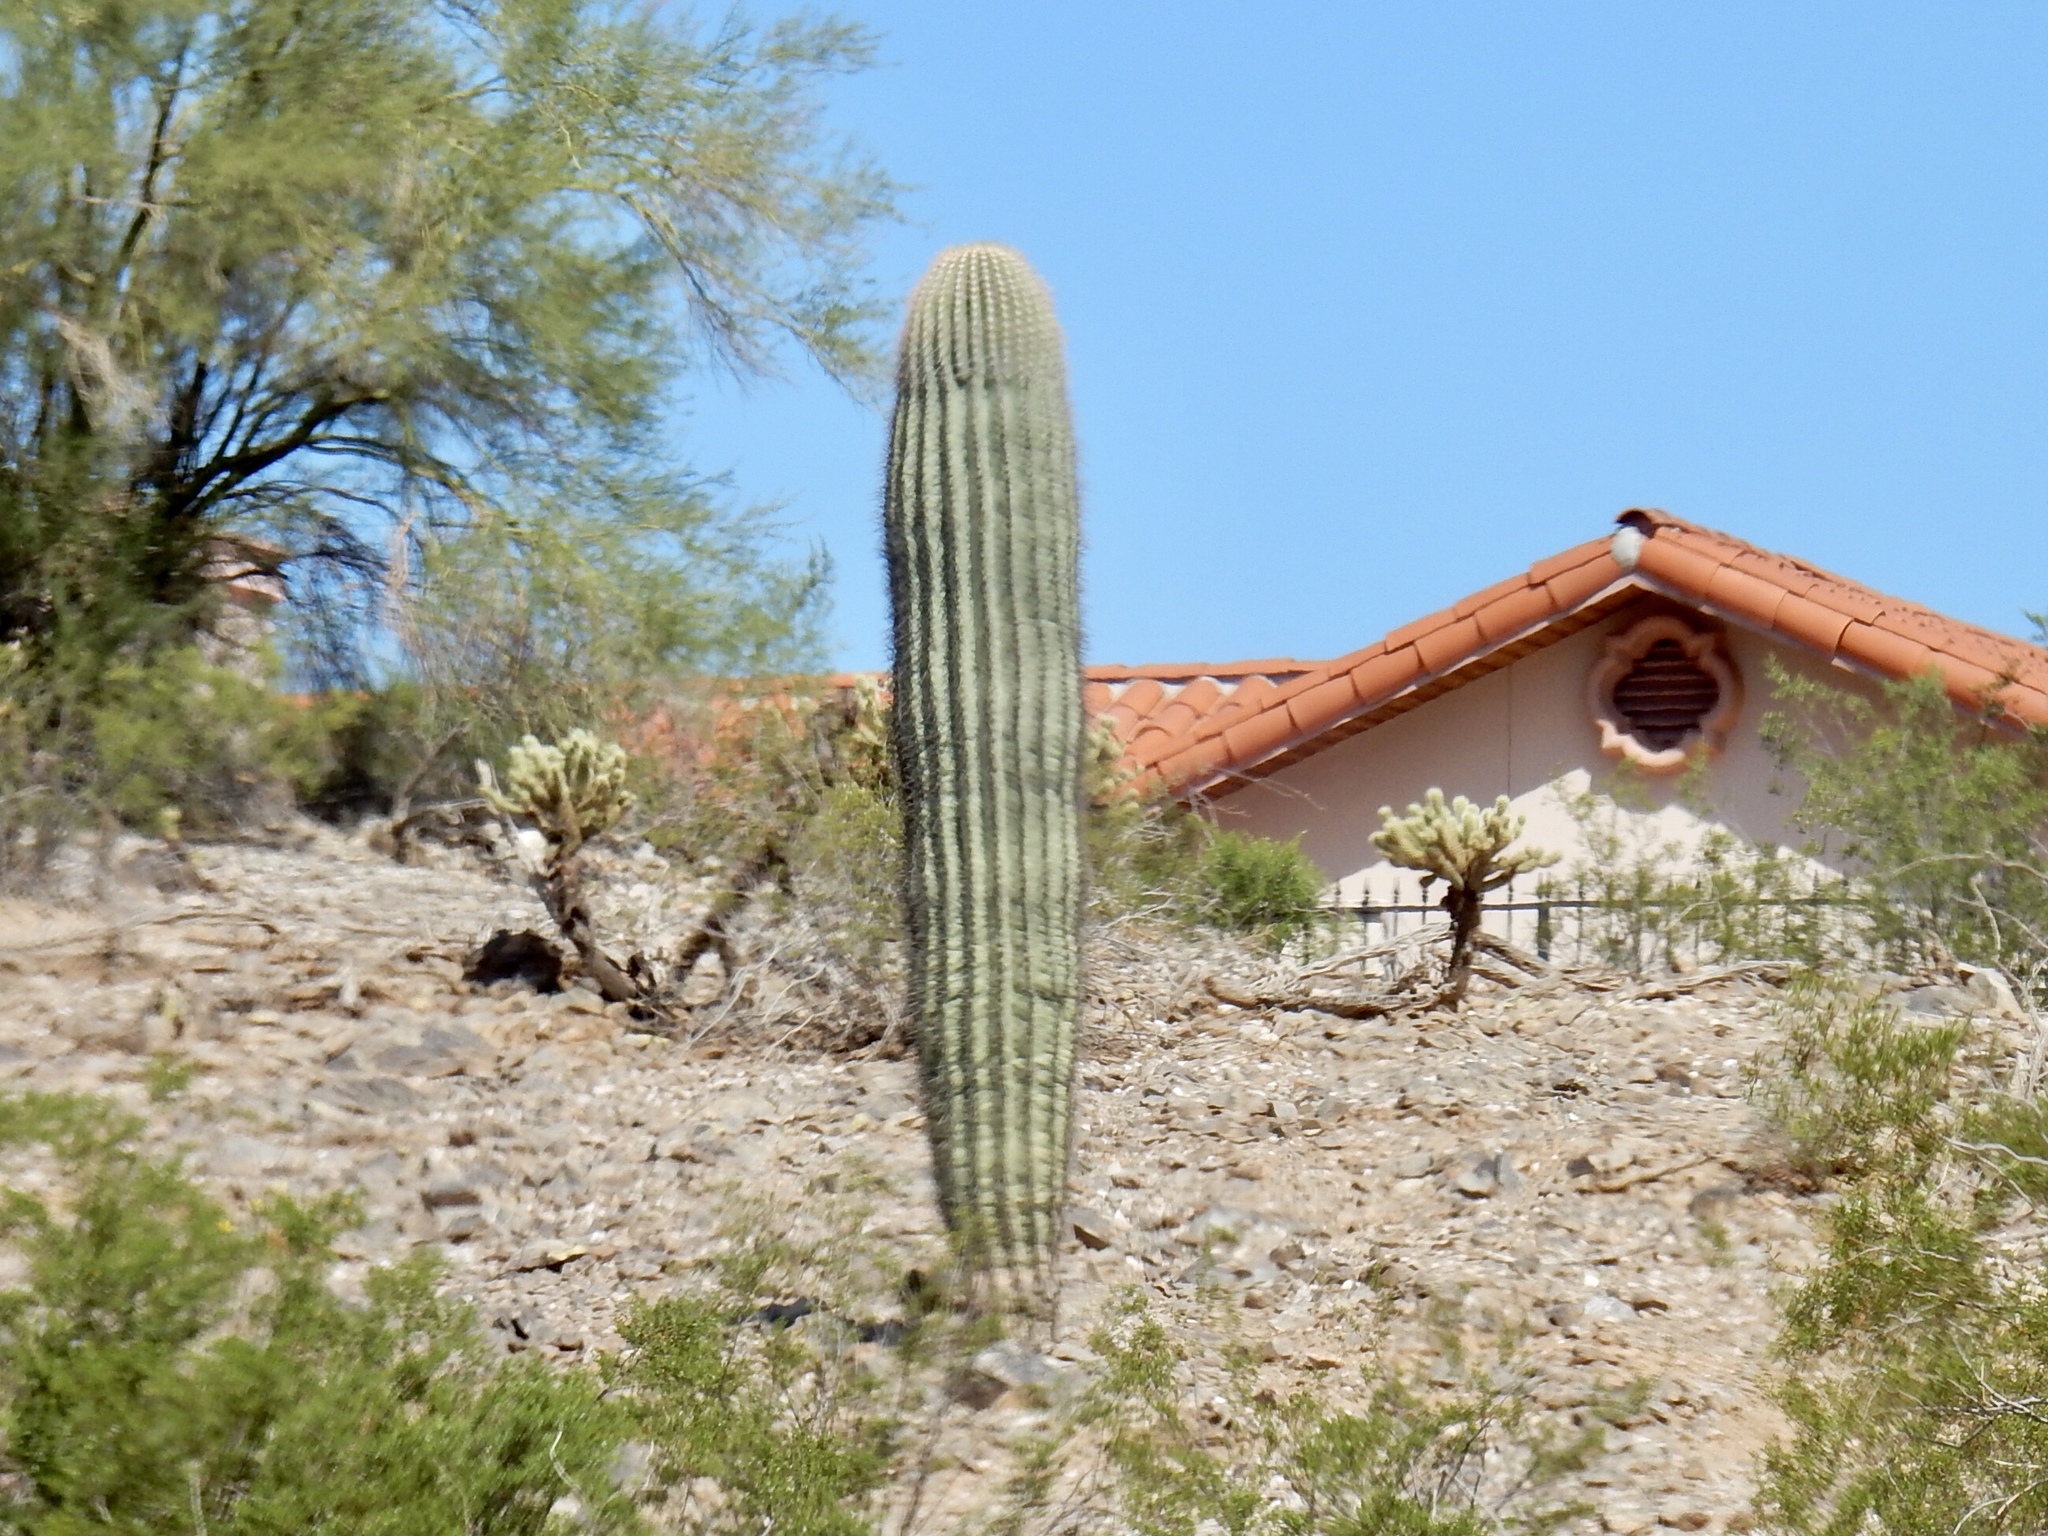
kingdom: Plantae
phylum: Tracheophyta
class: Magnoliopsida
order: Caryophyllales
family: Cactaceae
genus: Carnegiea
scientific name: Carnegiea gigantea
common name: Saguaro
